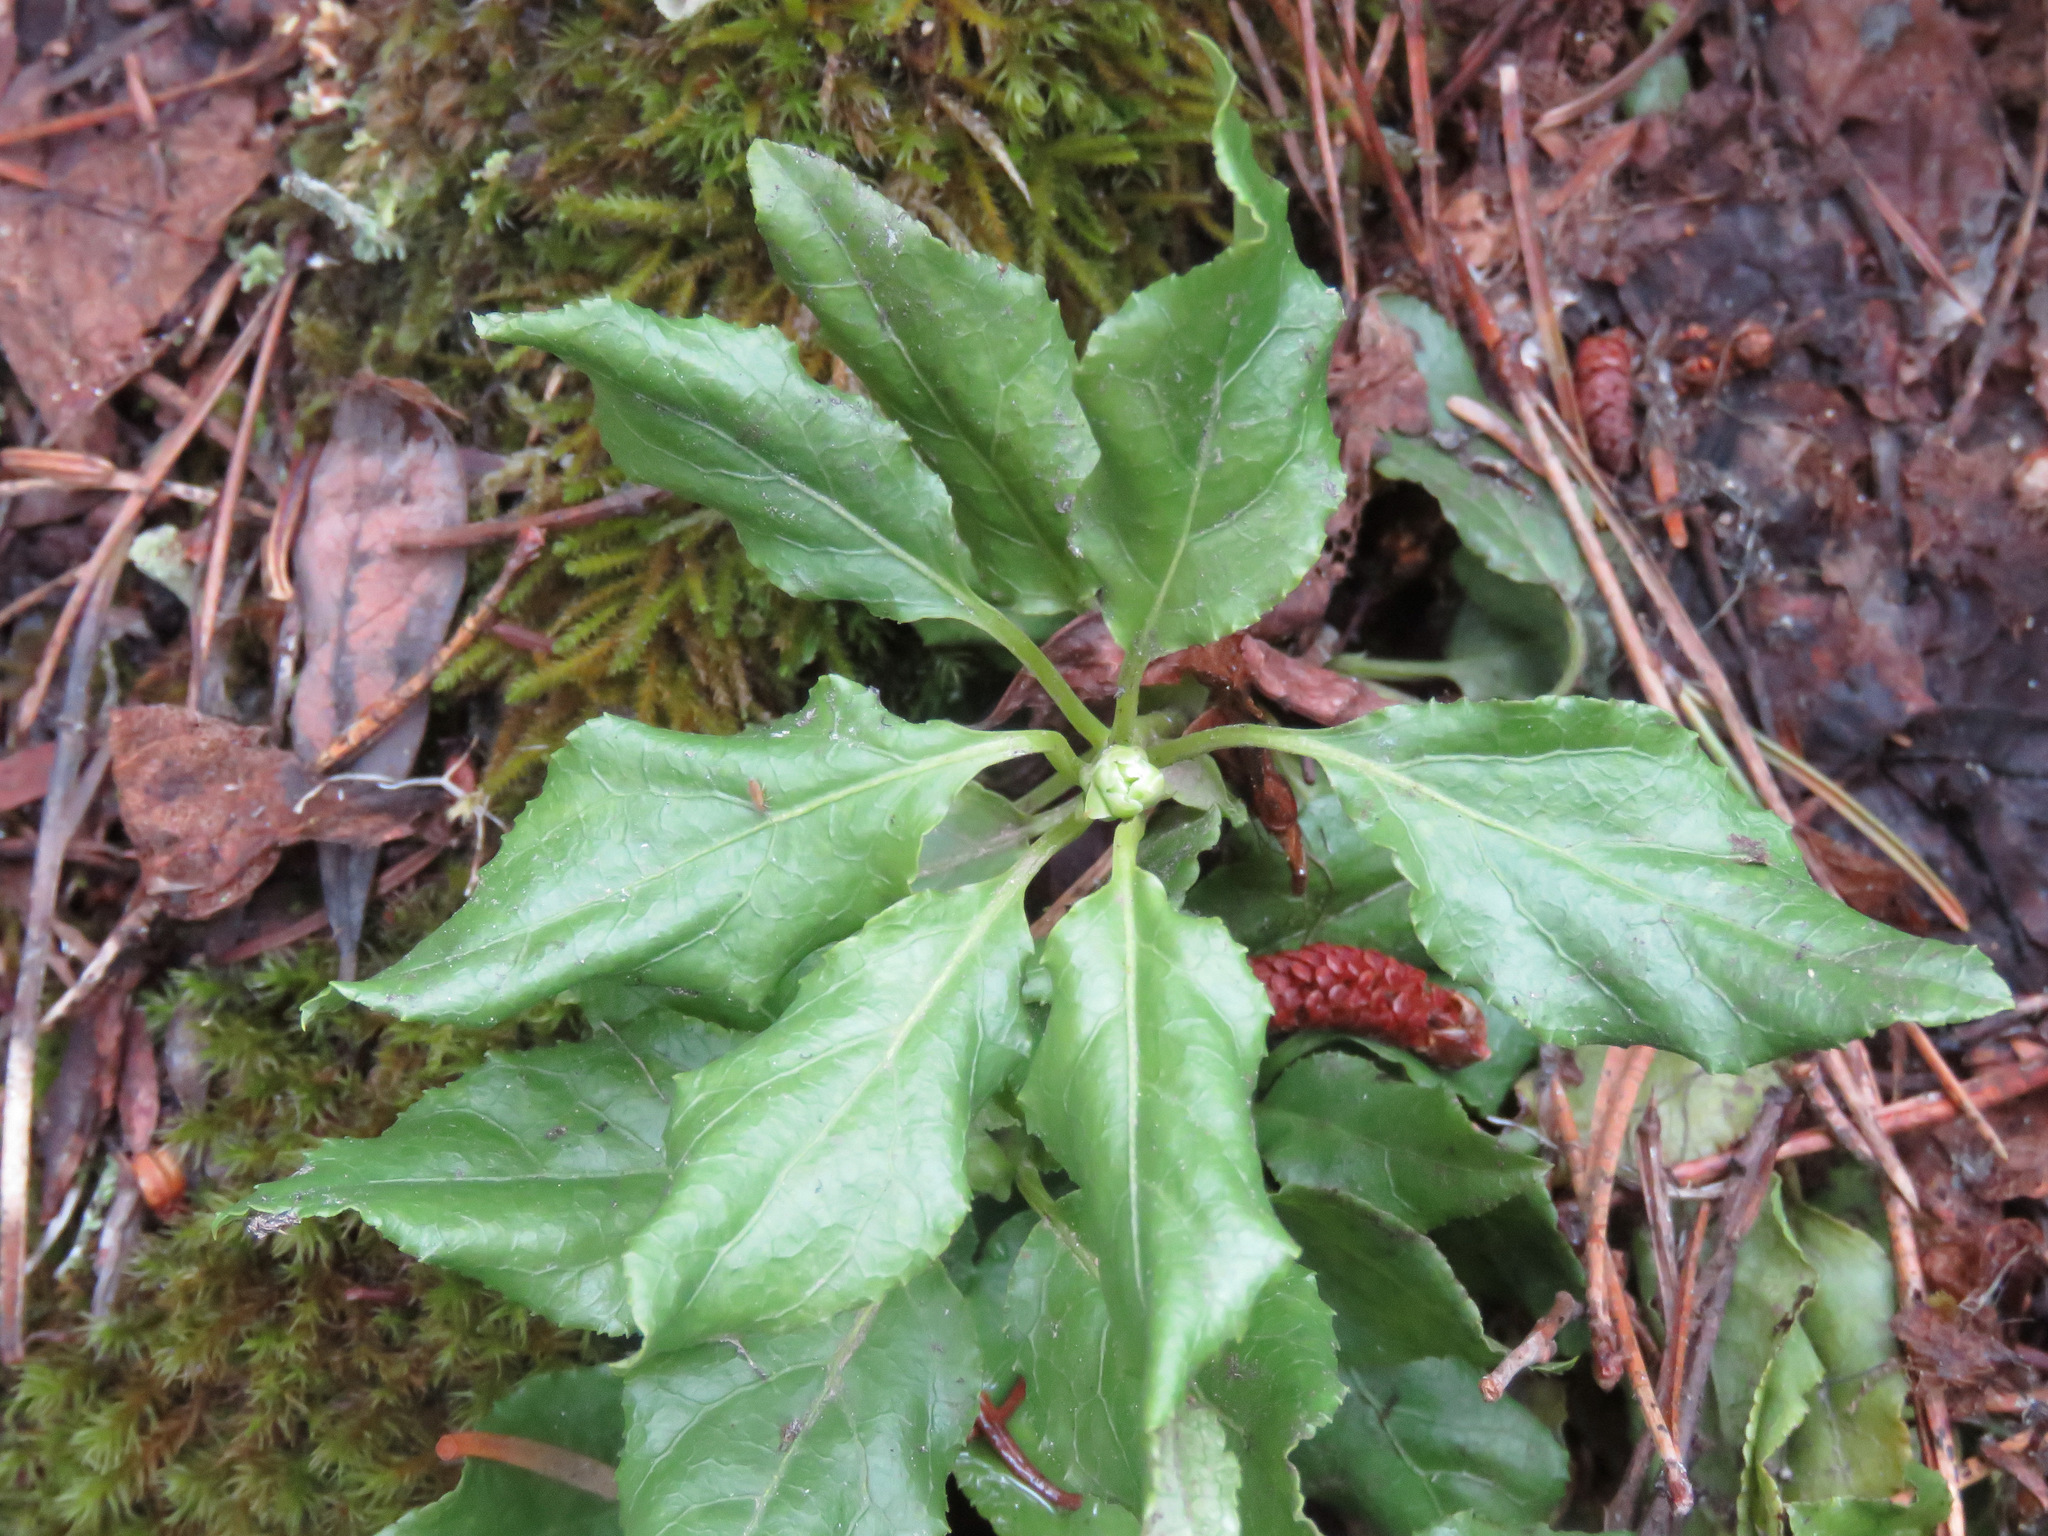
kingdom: Plantae
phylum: Tracheophyta
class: Magnoliopsida
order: Ericales
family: Ericaceae
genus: Orthilia
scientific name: Orthilia secunda
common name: One-sided orthilia
